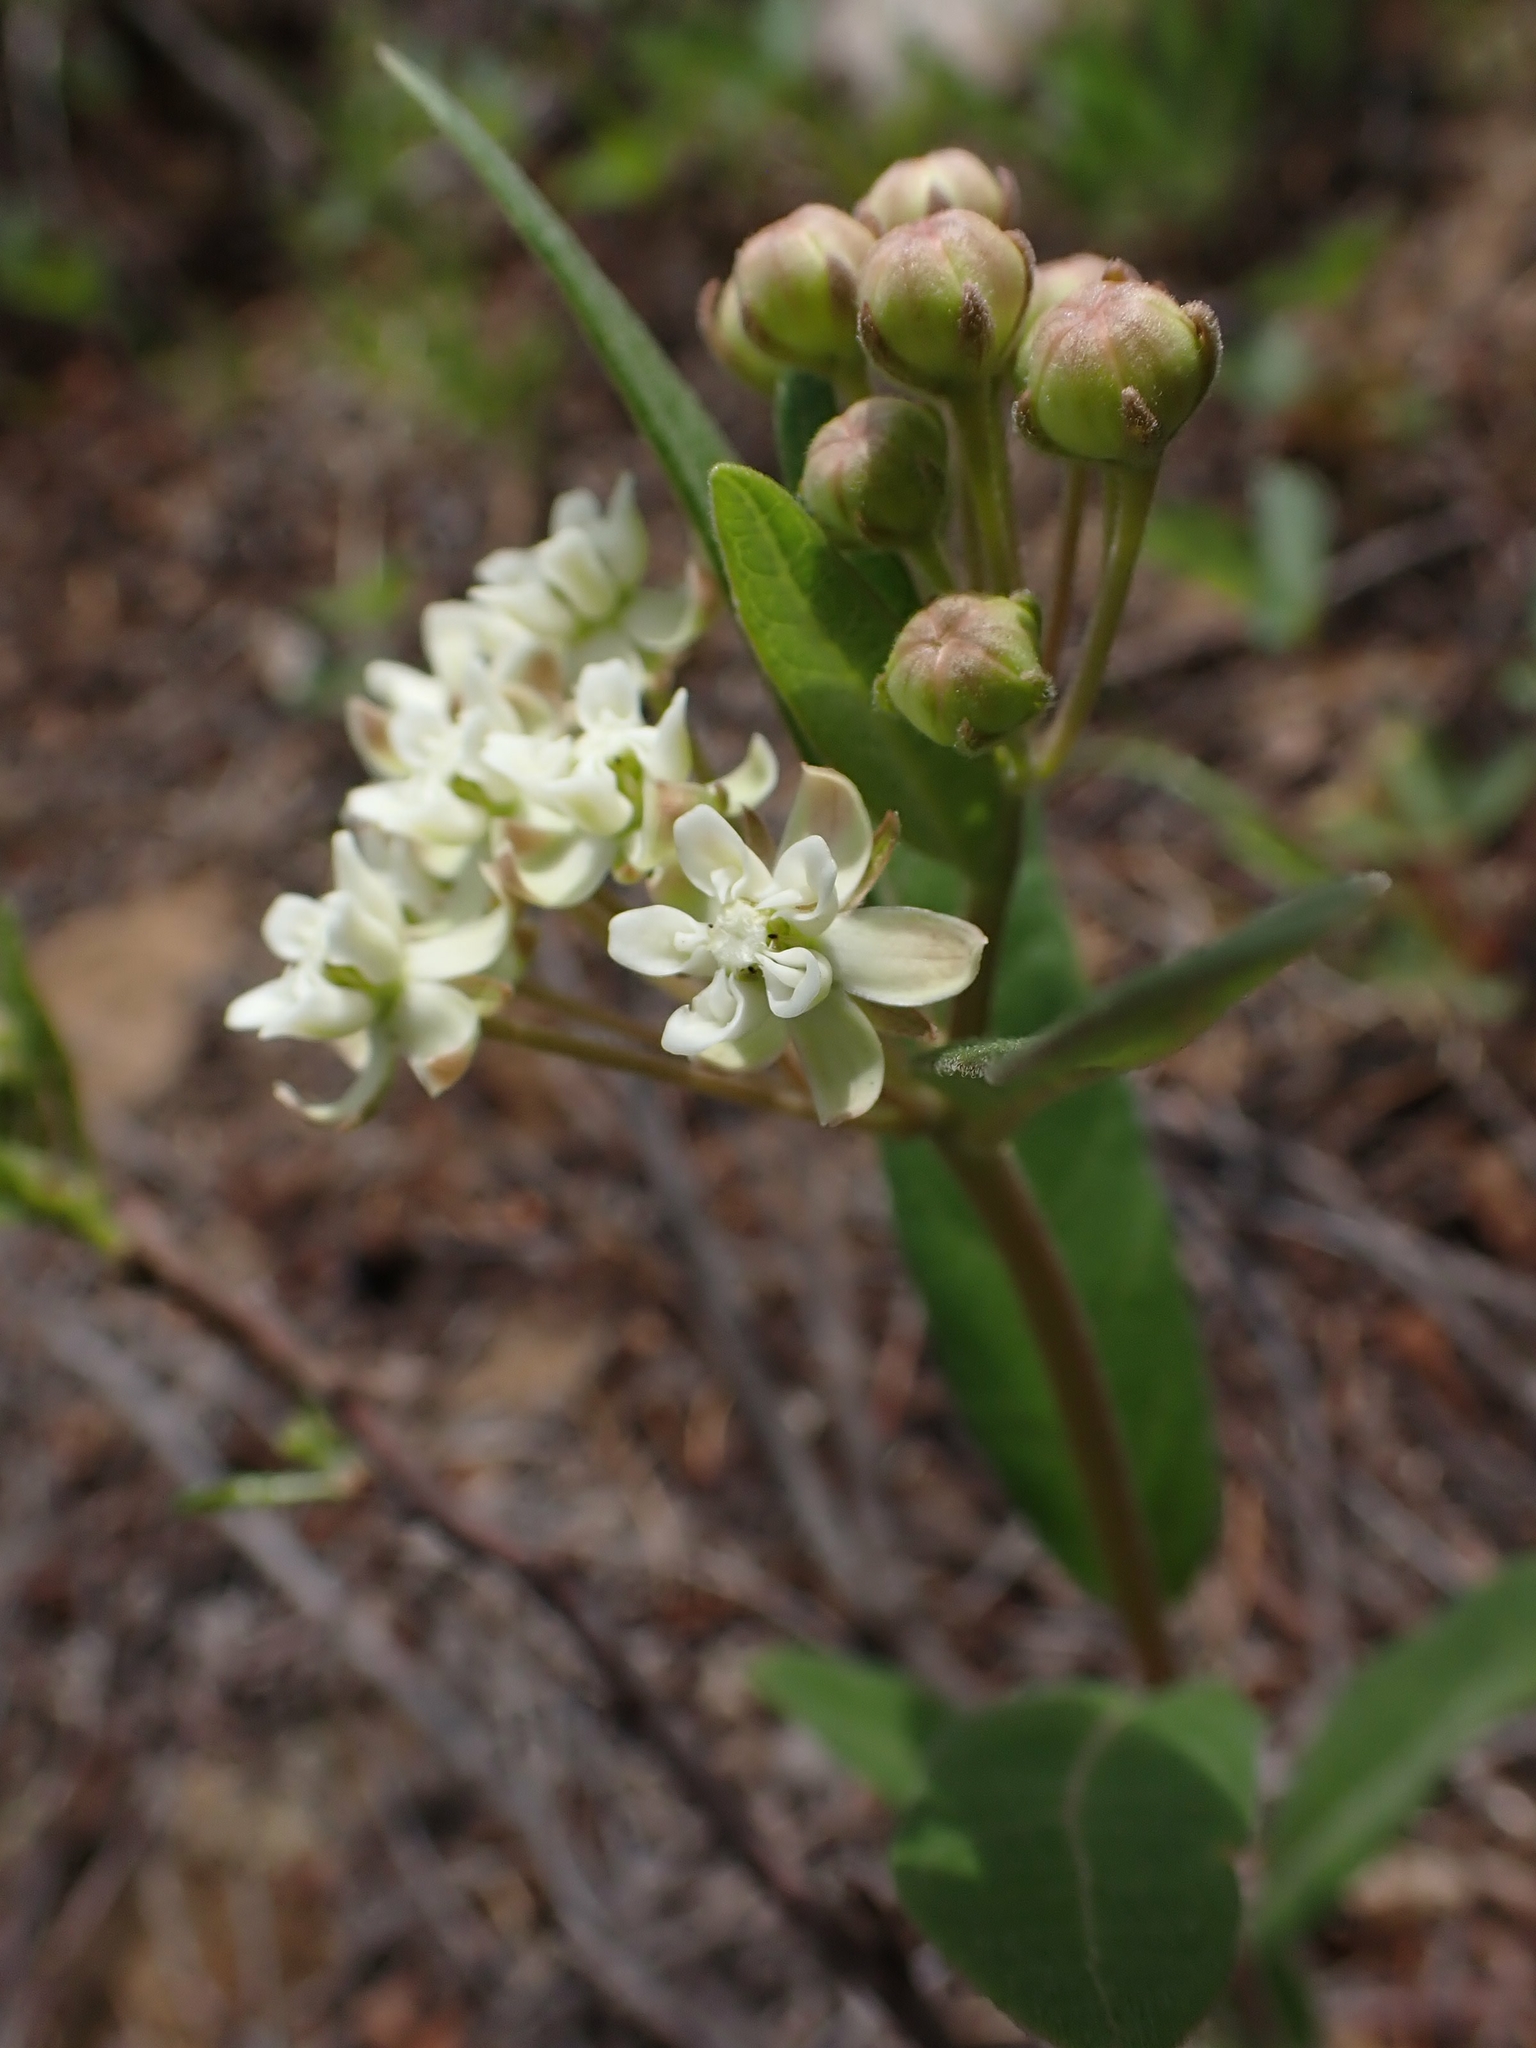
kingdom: Plantae
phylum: Tracheophyta
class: Magnoliopsida
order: Gentianales
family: Apocynaceae
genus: Asclepias
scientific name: Asclepias ovalifolia
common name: Dwarf milkweed
